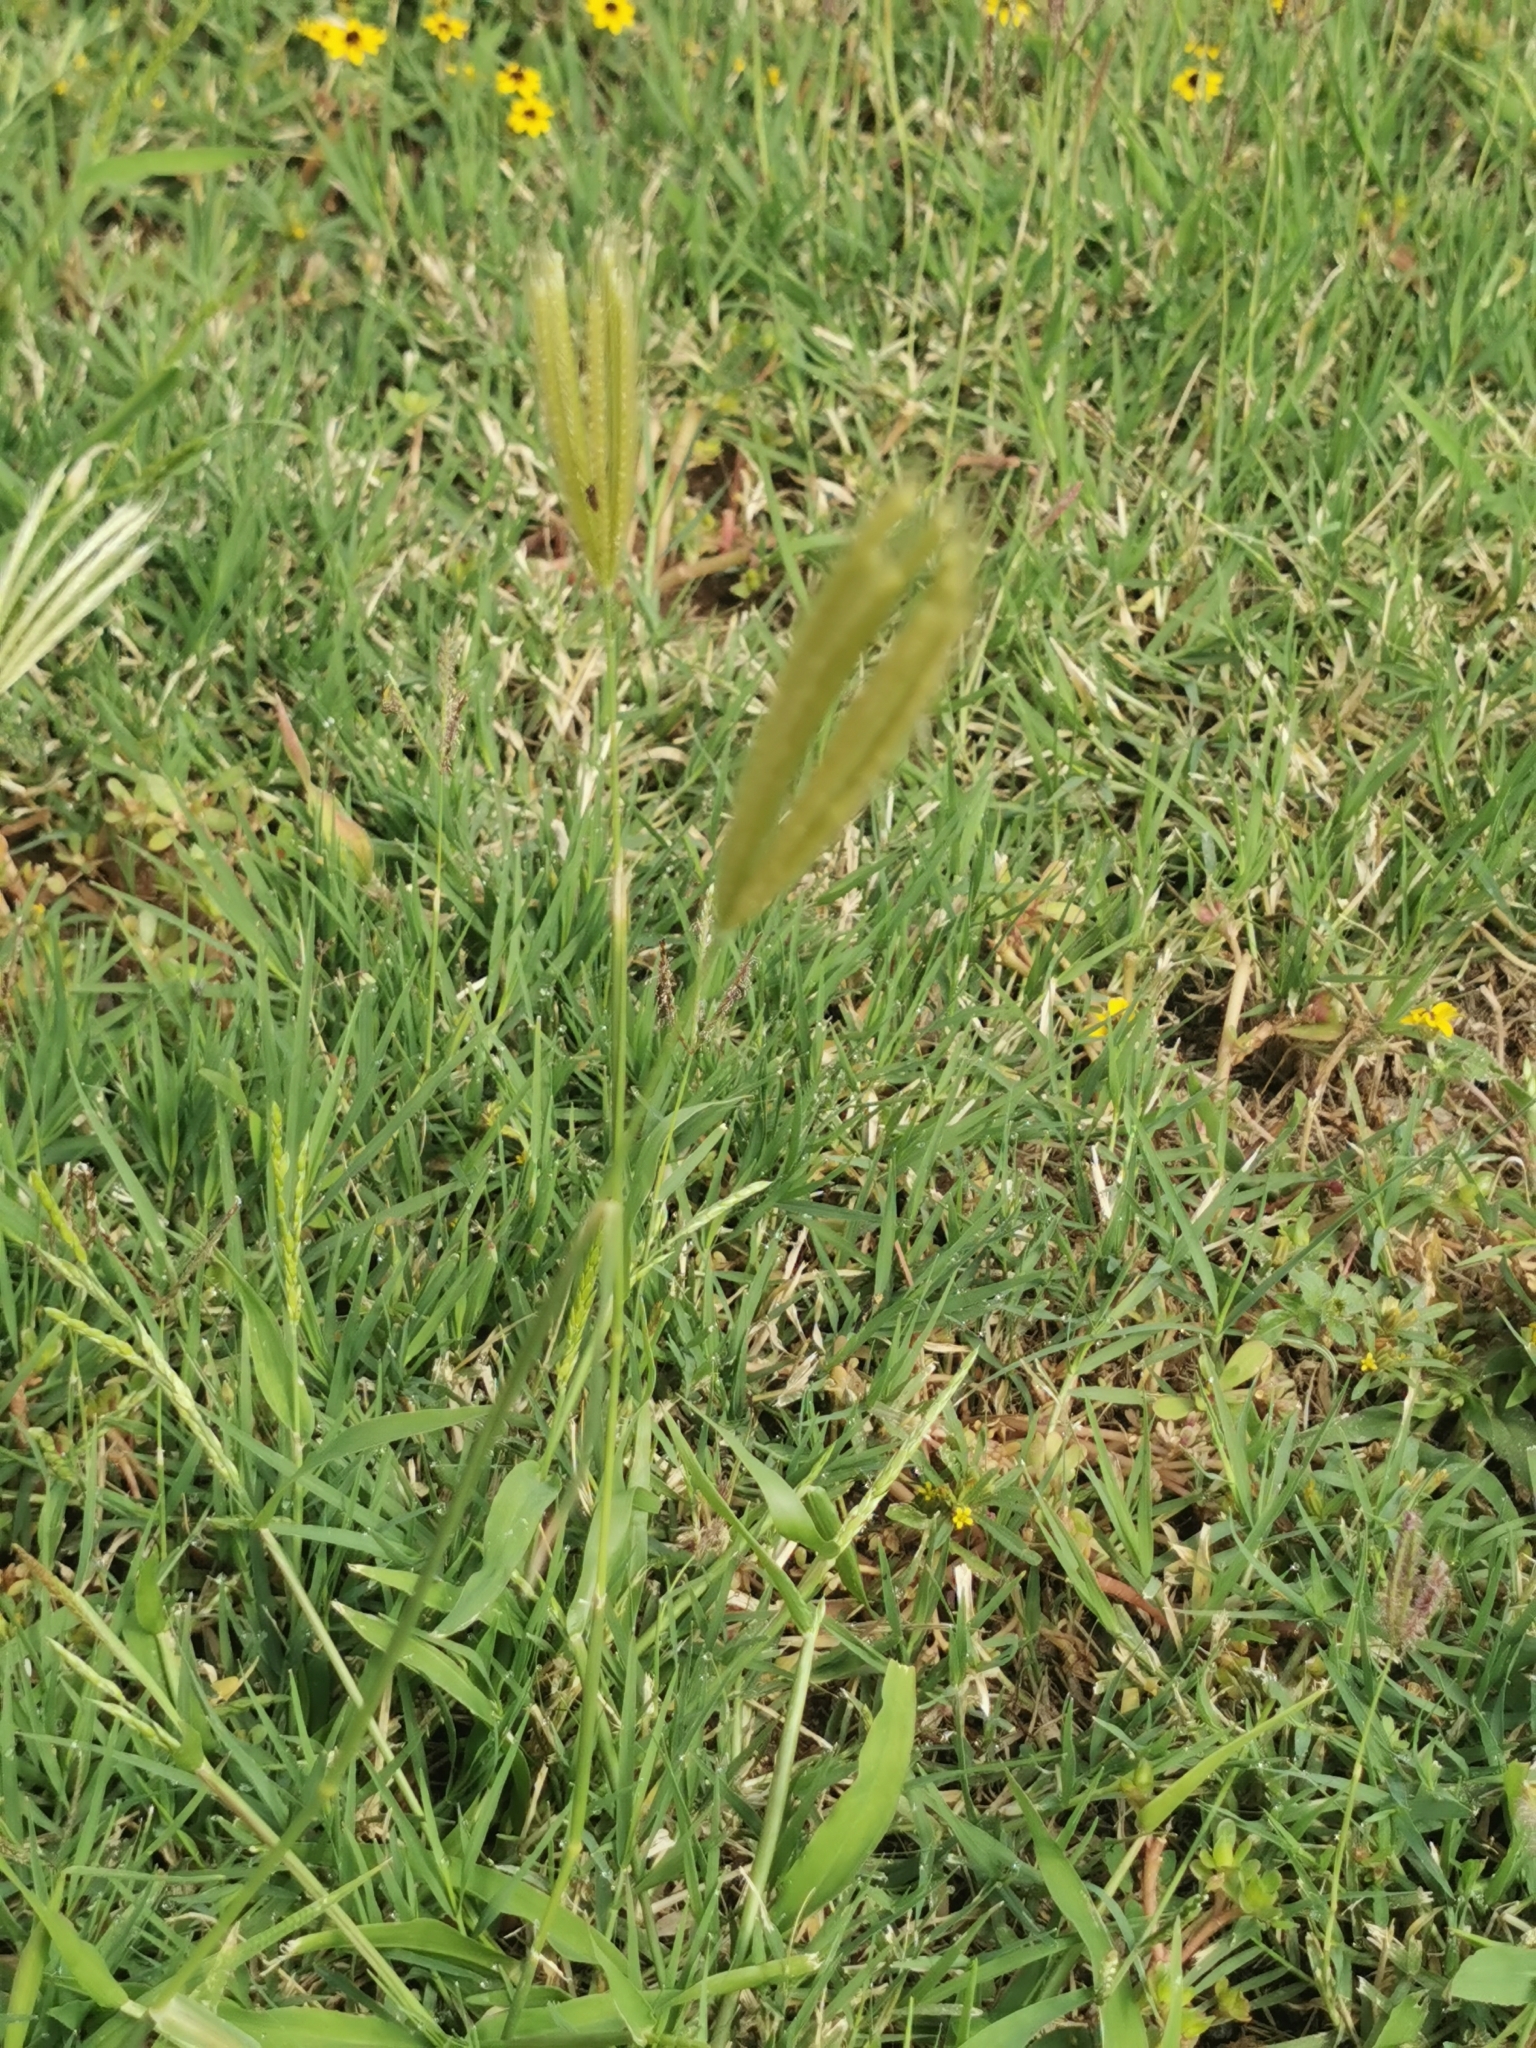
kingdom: Plantae
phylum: Tracheophyta
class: Liliopsida
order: Poales
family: Poaceae
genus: Chloris
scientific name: Chloris virgata
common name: Feathery rhodes-grass
